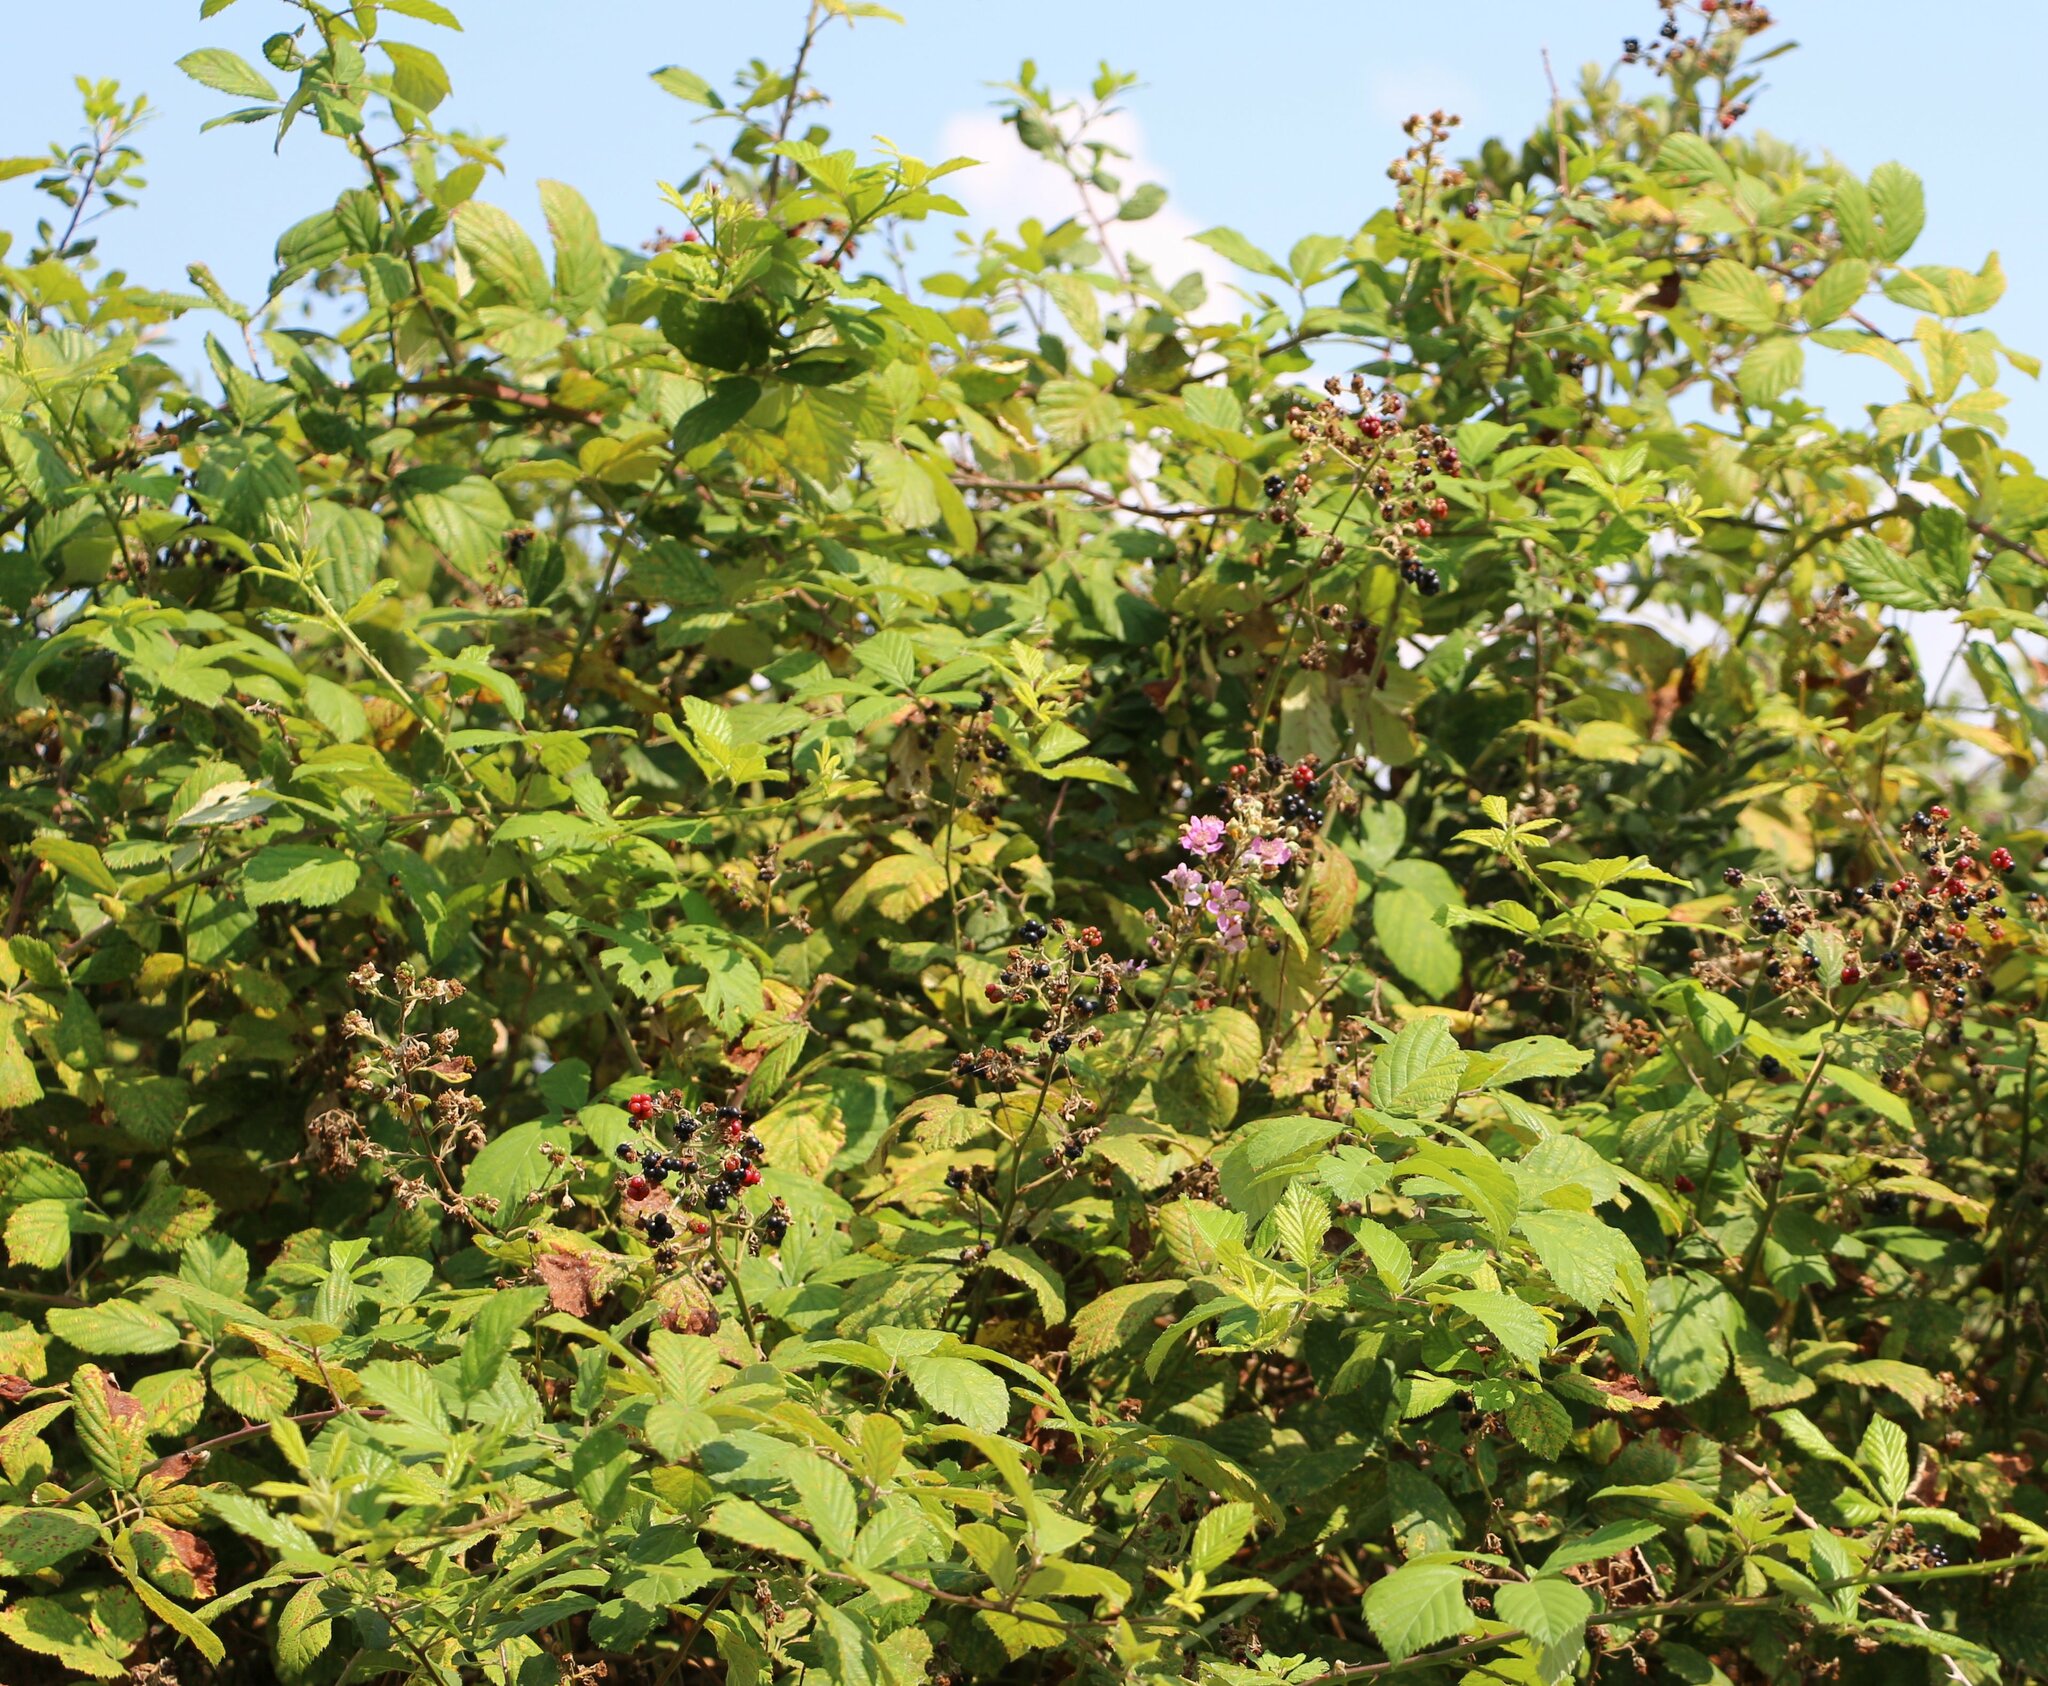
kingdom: Plantae
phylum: Tracheophyta
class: Magnoliopsida
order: Rosales
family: Rosaceae
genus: Rubus
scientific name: Rubus sanctus
